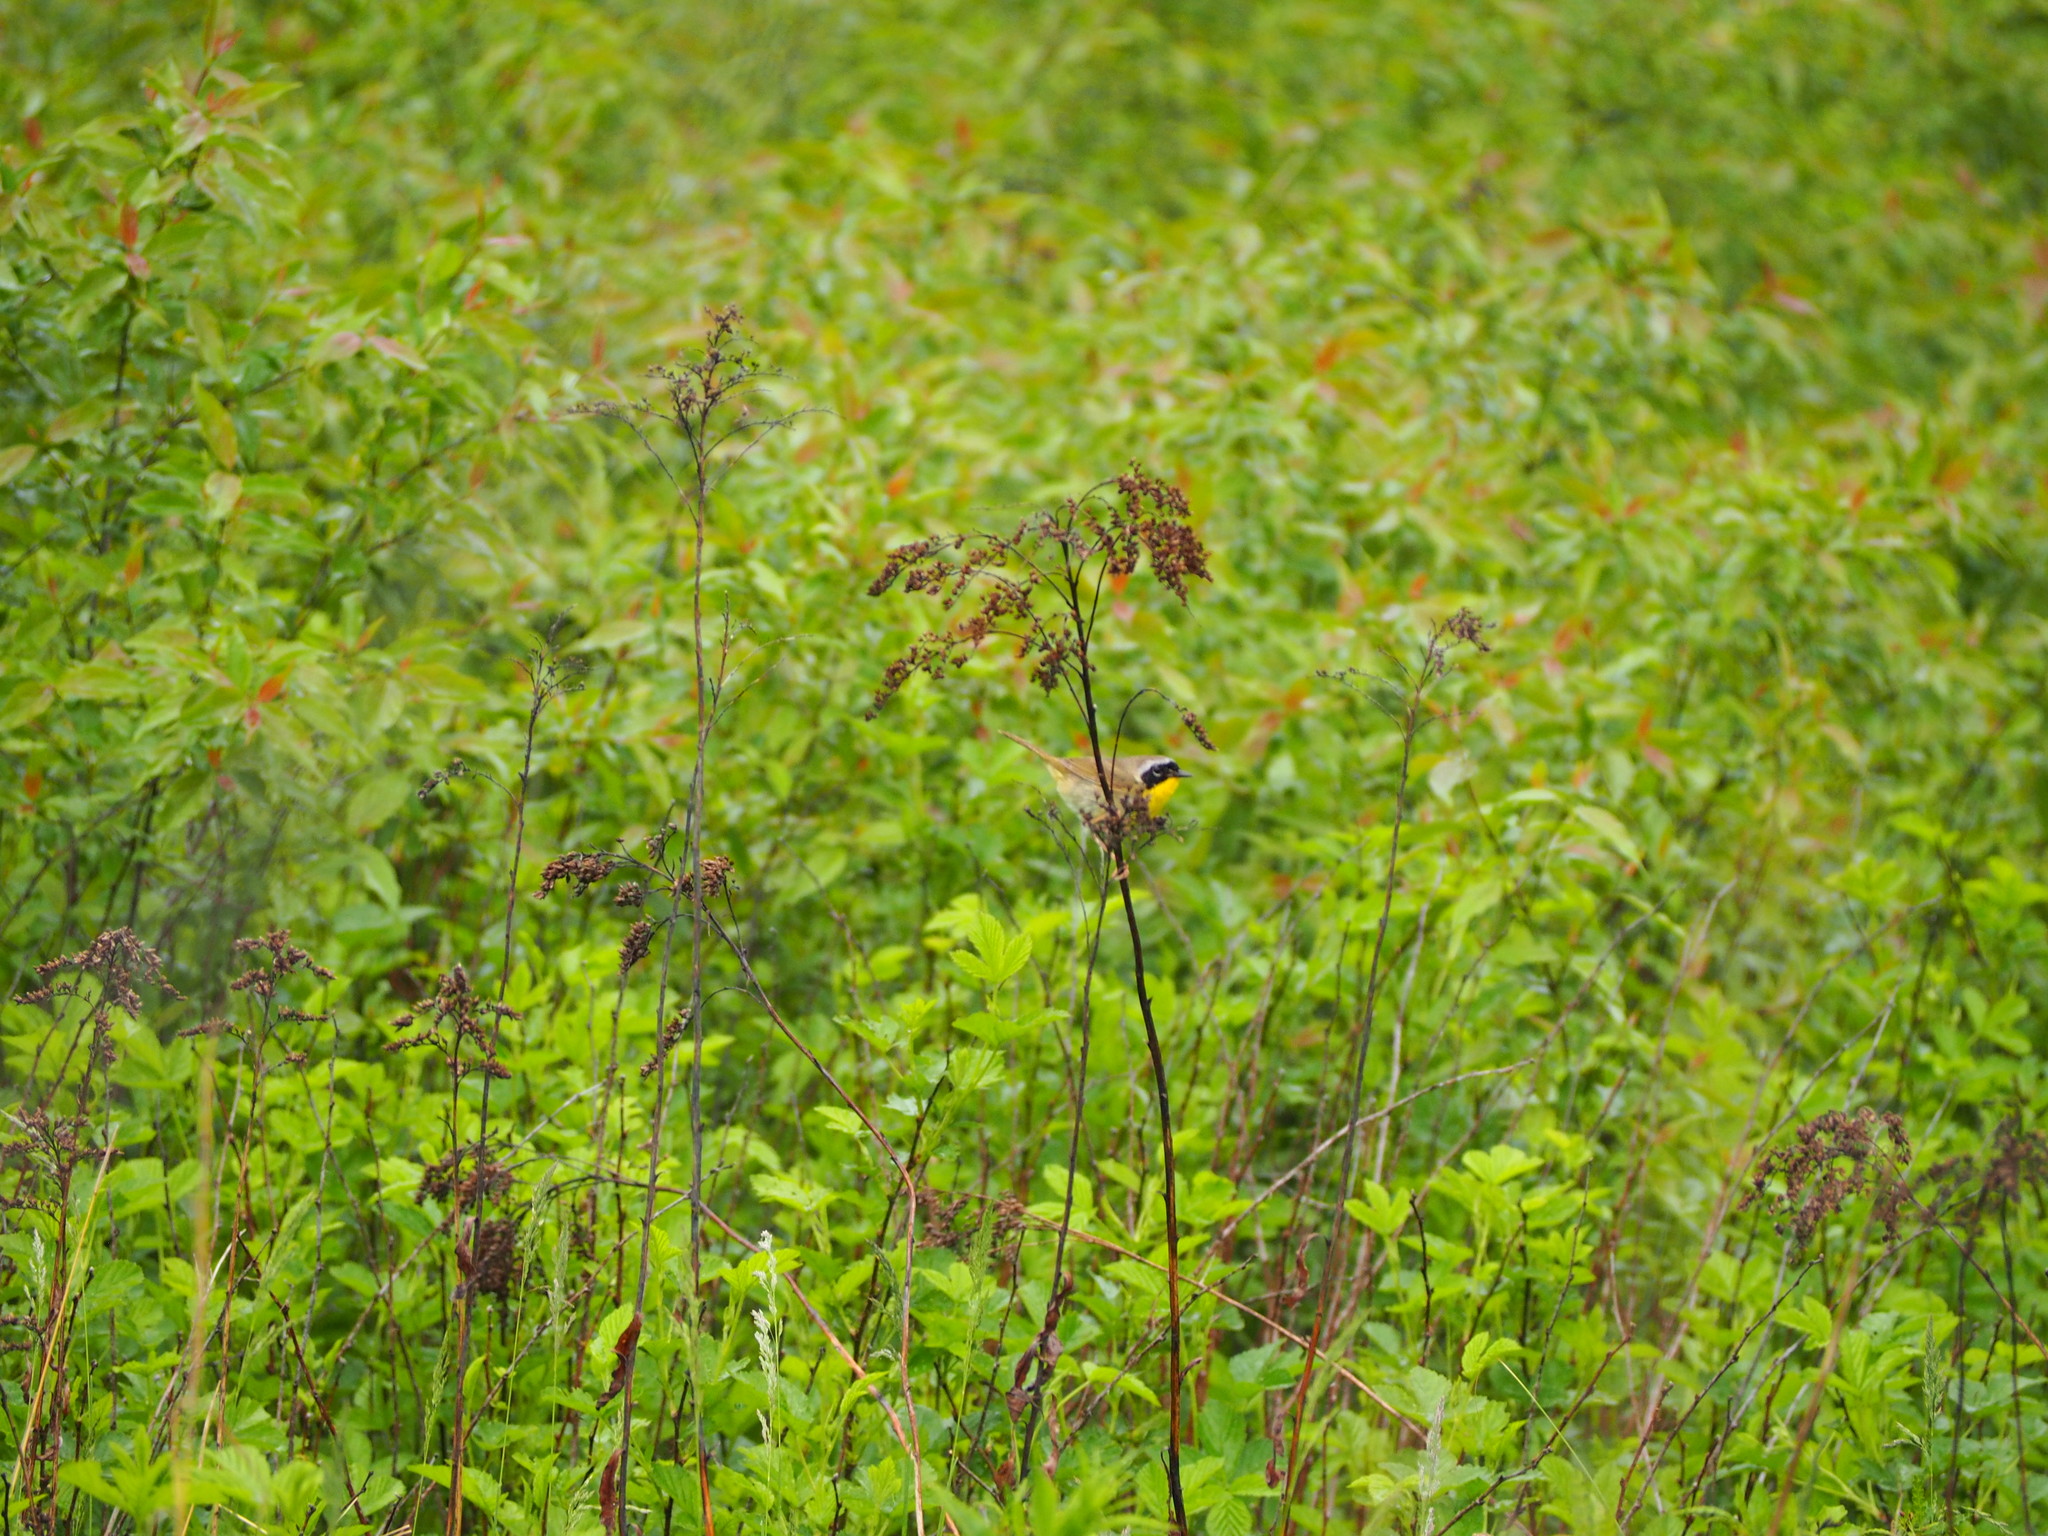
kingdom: Animalia
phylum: Chordata
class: Aves
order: Passeriformes
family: Parulidae
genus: Geothlypis
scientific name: Geothlypis trichas
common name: Common yellowthroat
